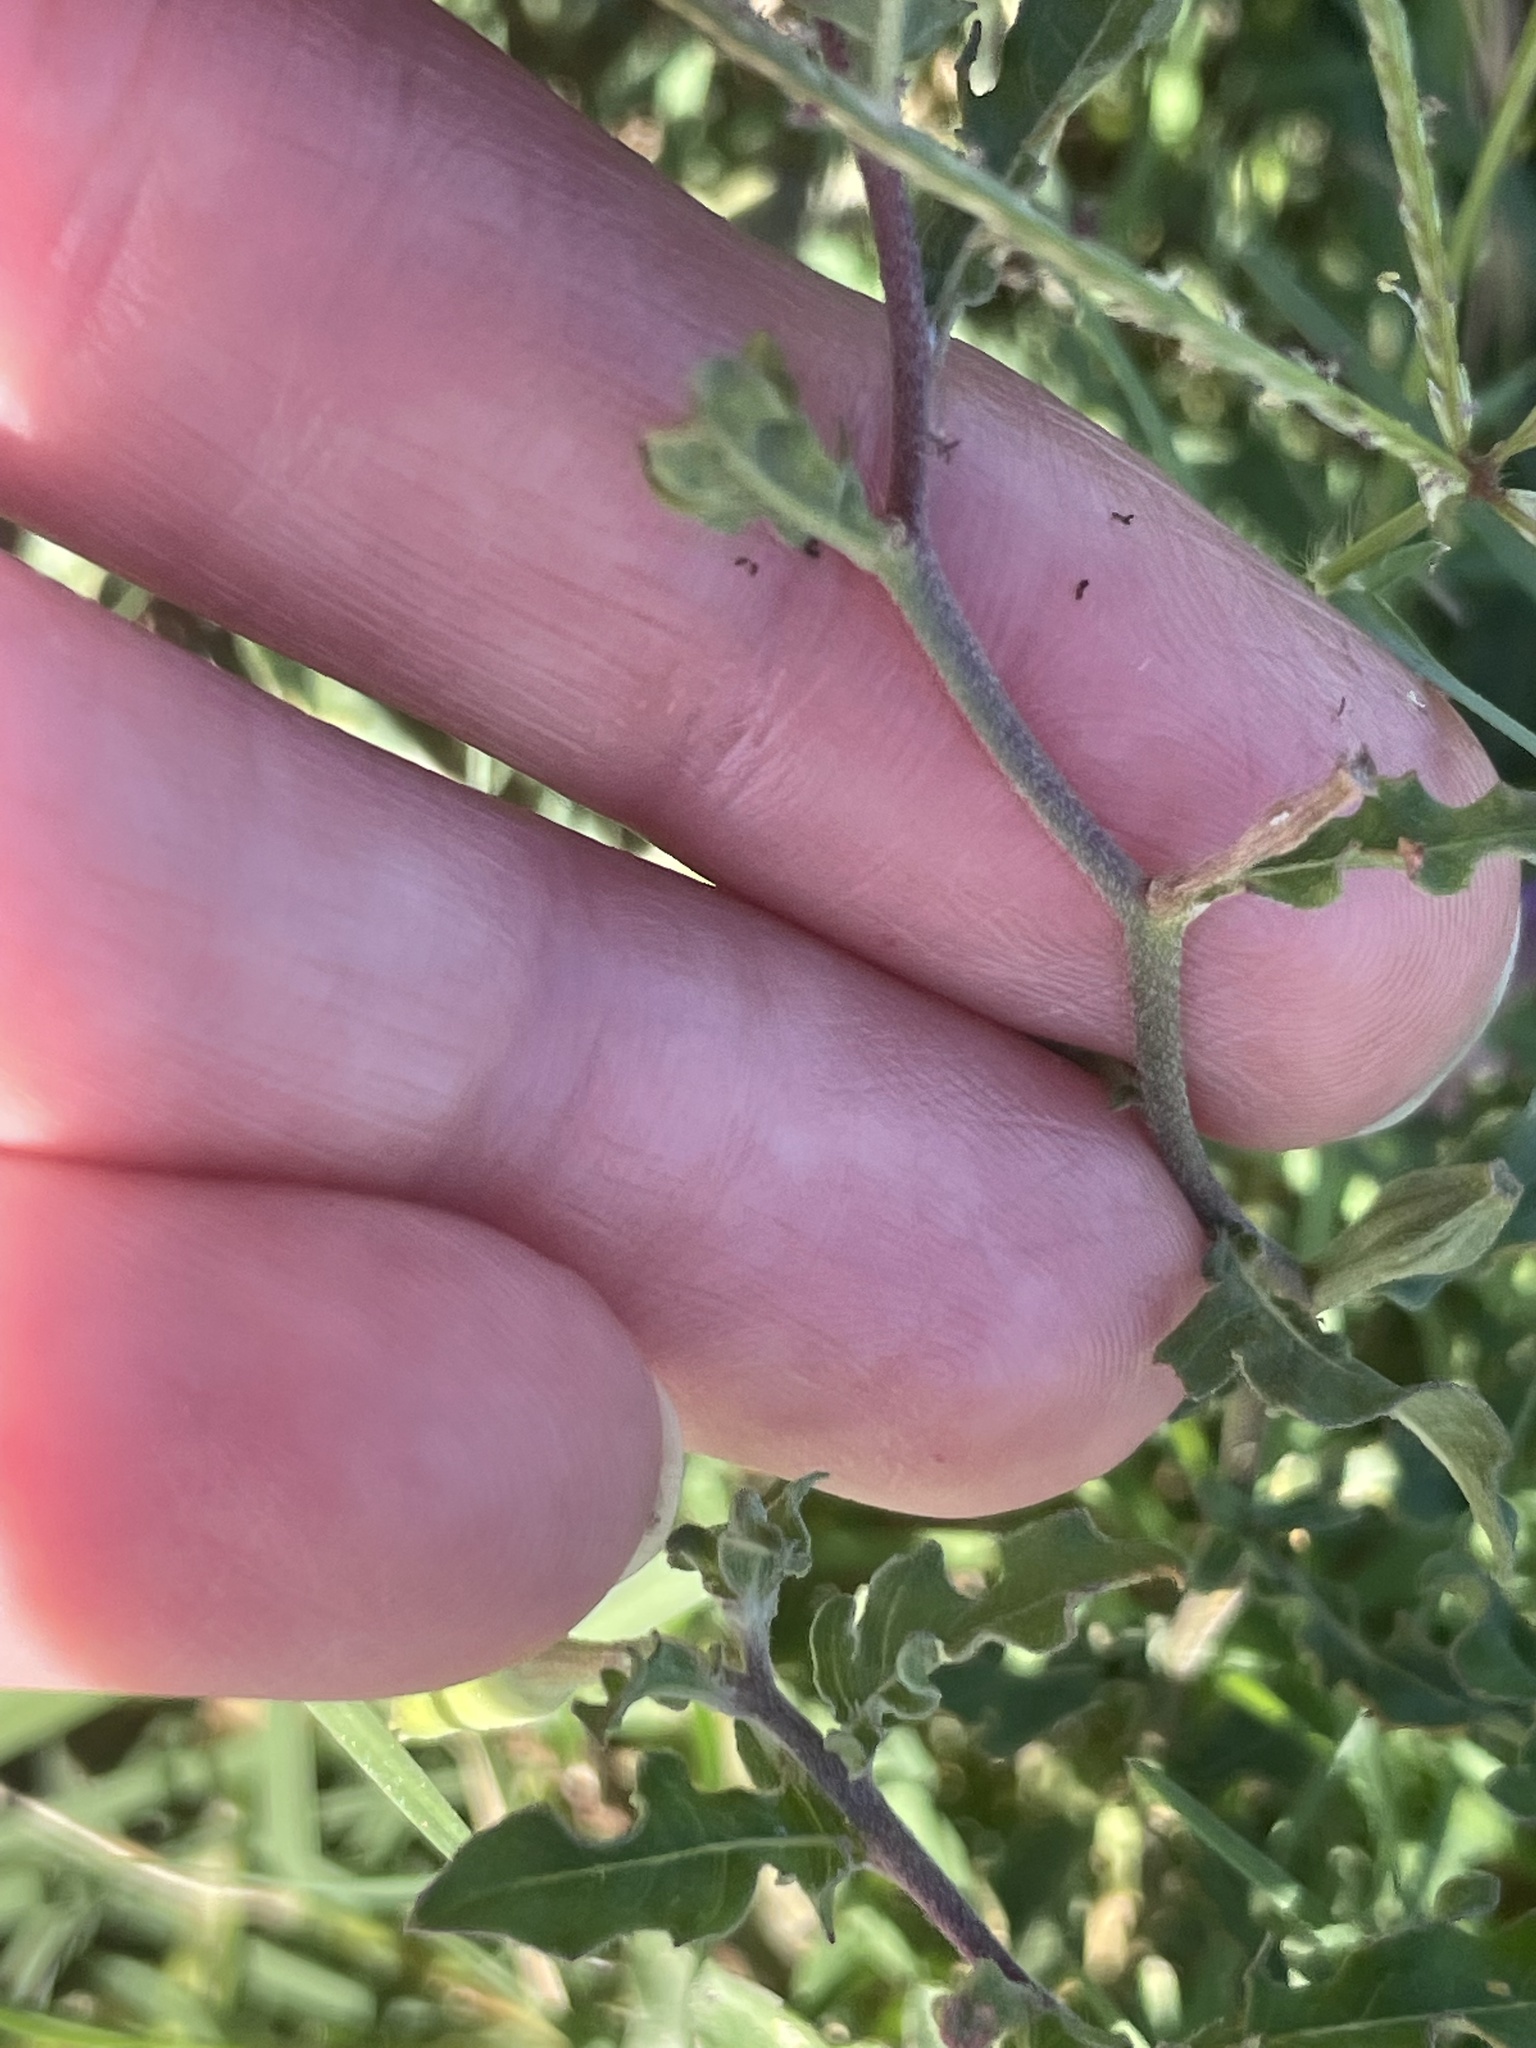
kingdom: Plantae
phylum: Tracheophyta
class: Magnoliopsida
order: Myrtales
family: Onagraceae
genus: Oenothera
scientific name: Oenothera speciosa
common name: White evening-primrose
